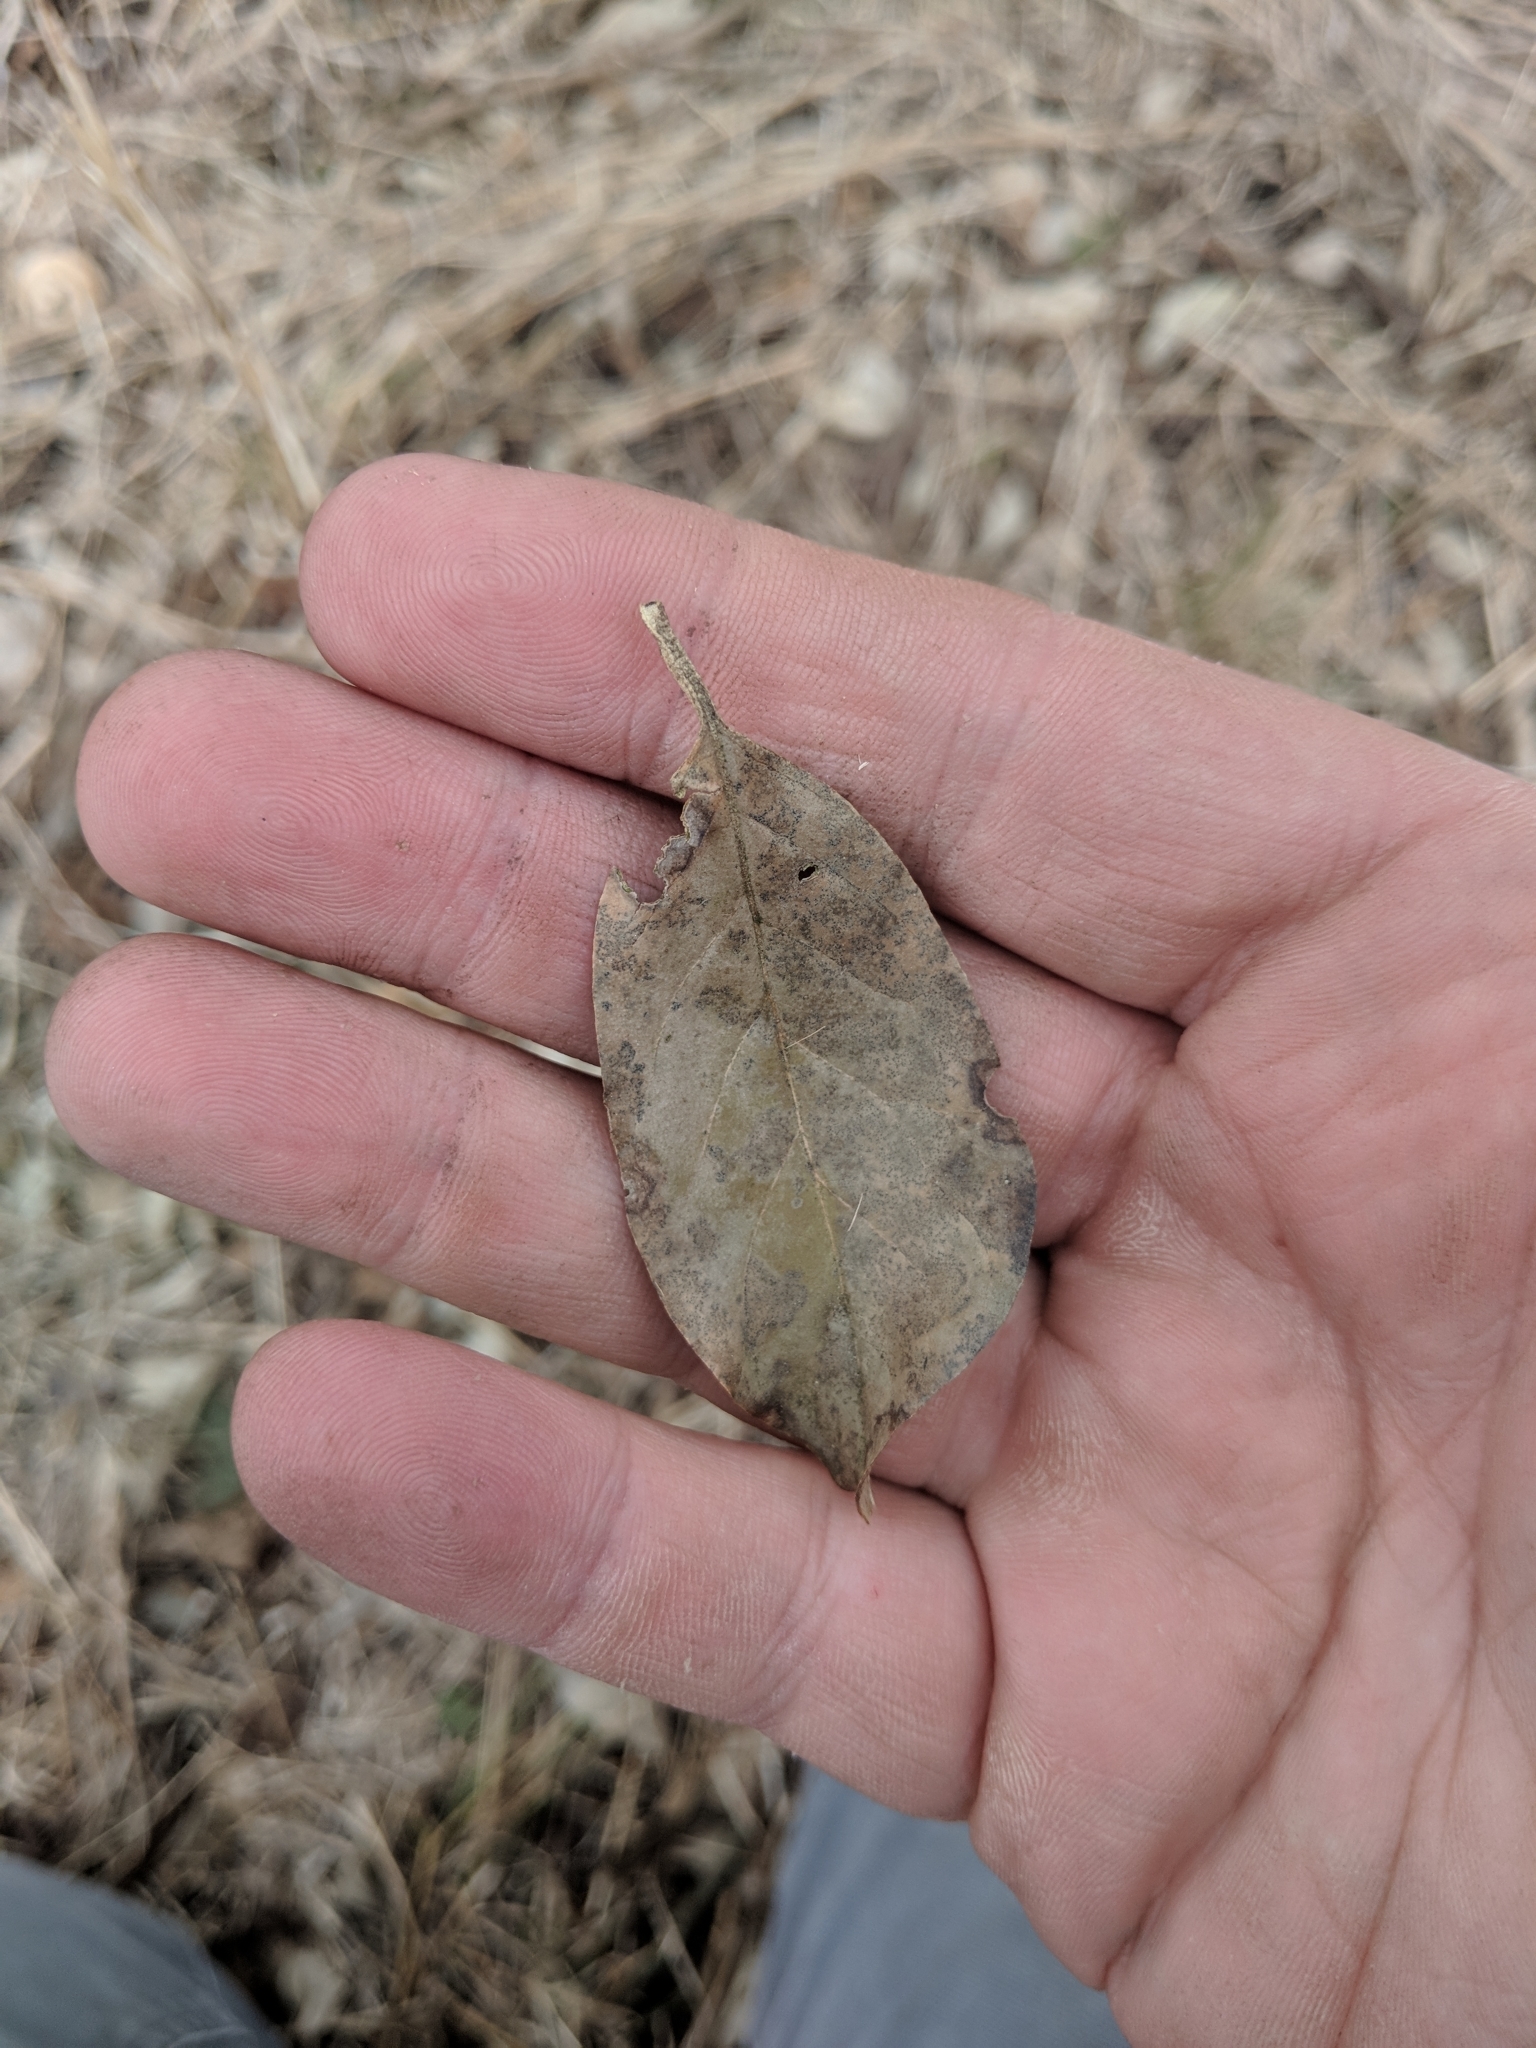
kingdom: Plantae
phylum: Tracheophyta
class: Magnoliopsida
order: Rosales
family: Elaeagnaceae
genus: Elaeagnus
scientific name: Elaeagnus umbellata
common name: Autumn olive
